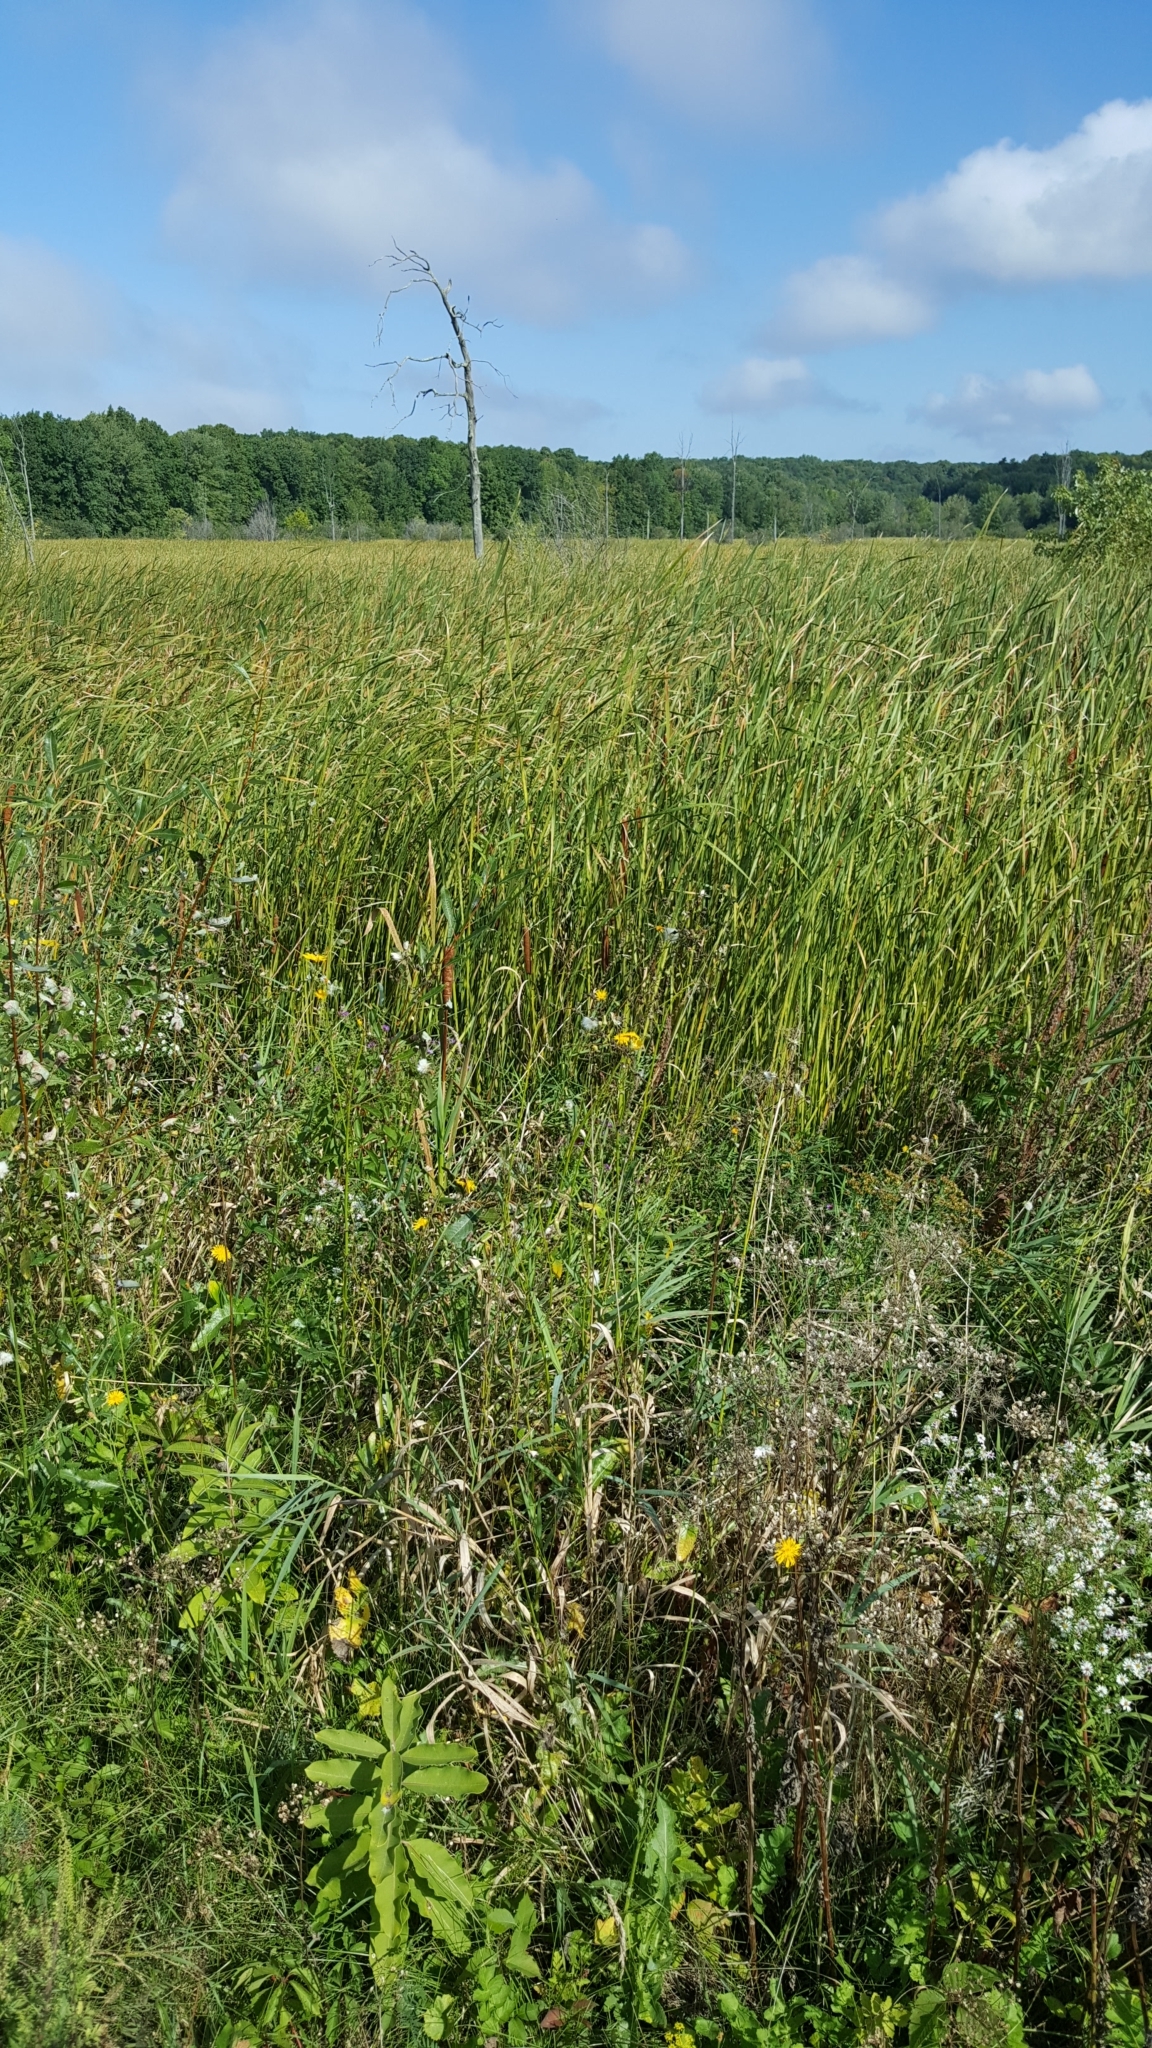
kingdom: Plantae
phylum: Tracheophyta
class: Liliopsida
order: Poales
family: Typhaceae
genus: Typha
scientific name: Typha angustifolia
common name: Lesser bulrush
